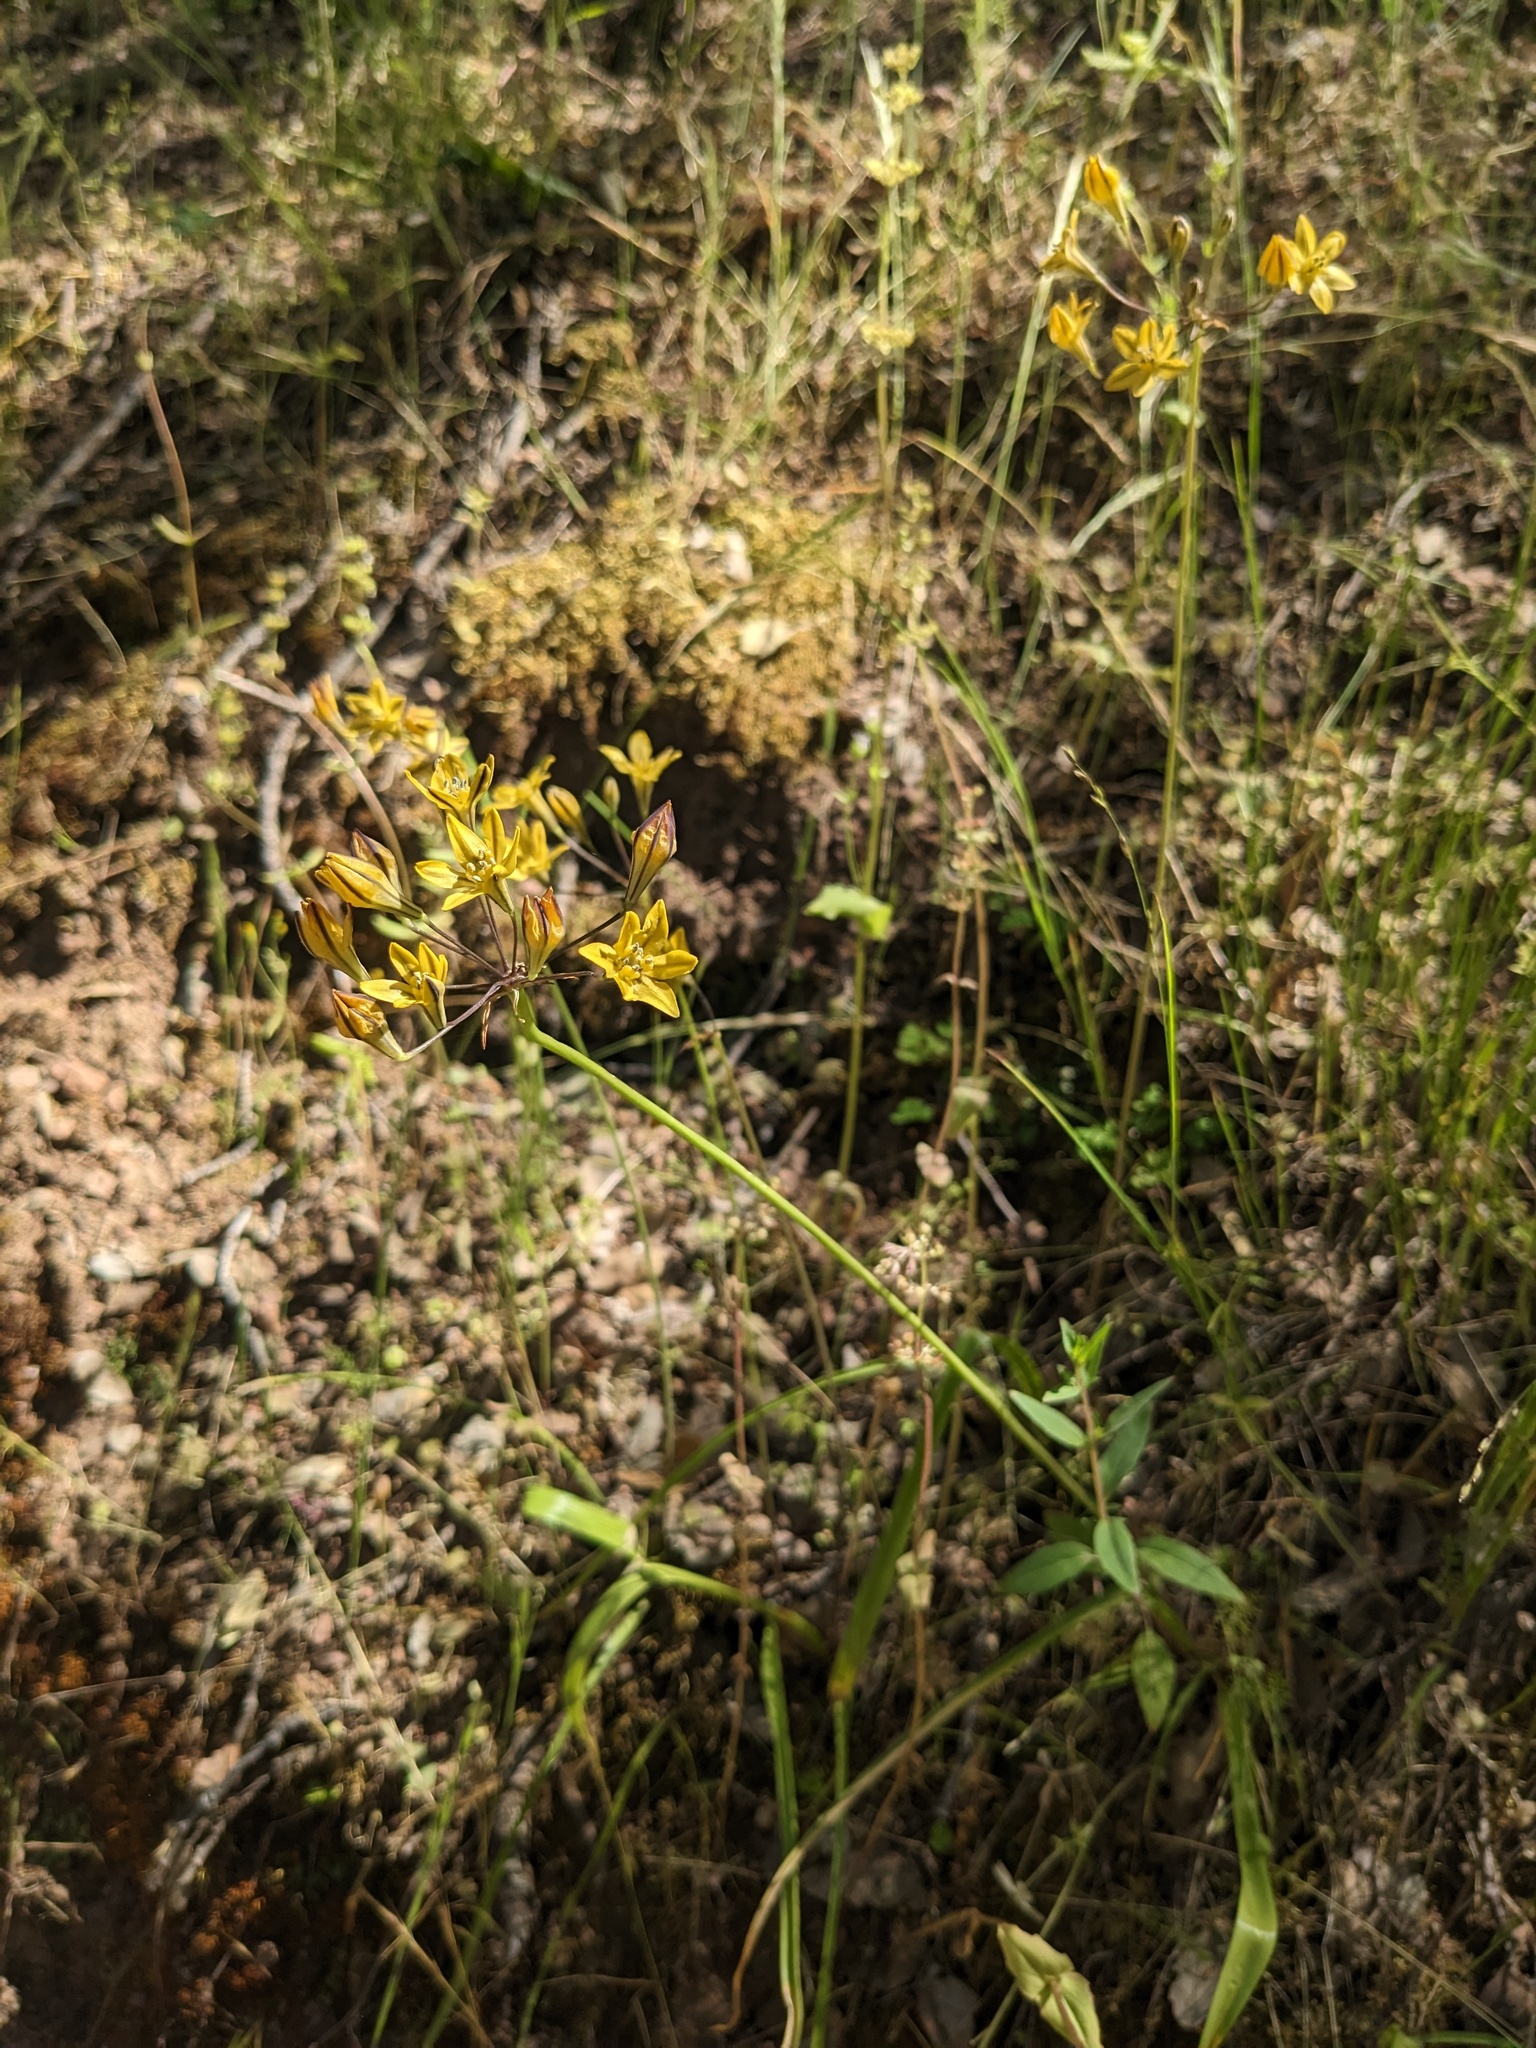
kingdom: Plantae
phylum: Tracheophyta
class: Liliopsida
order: Asparagales
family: Asparagaceae
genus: Triteleia
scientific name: Triteleia lugens
